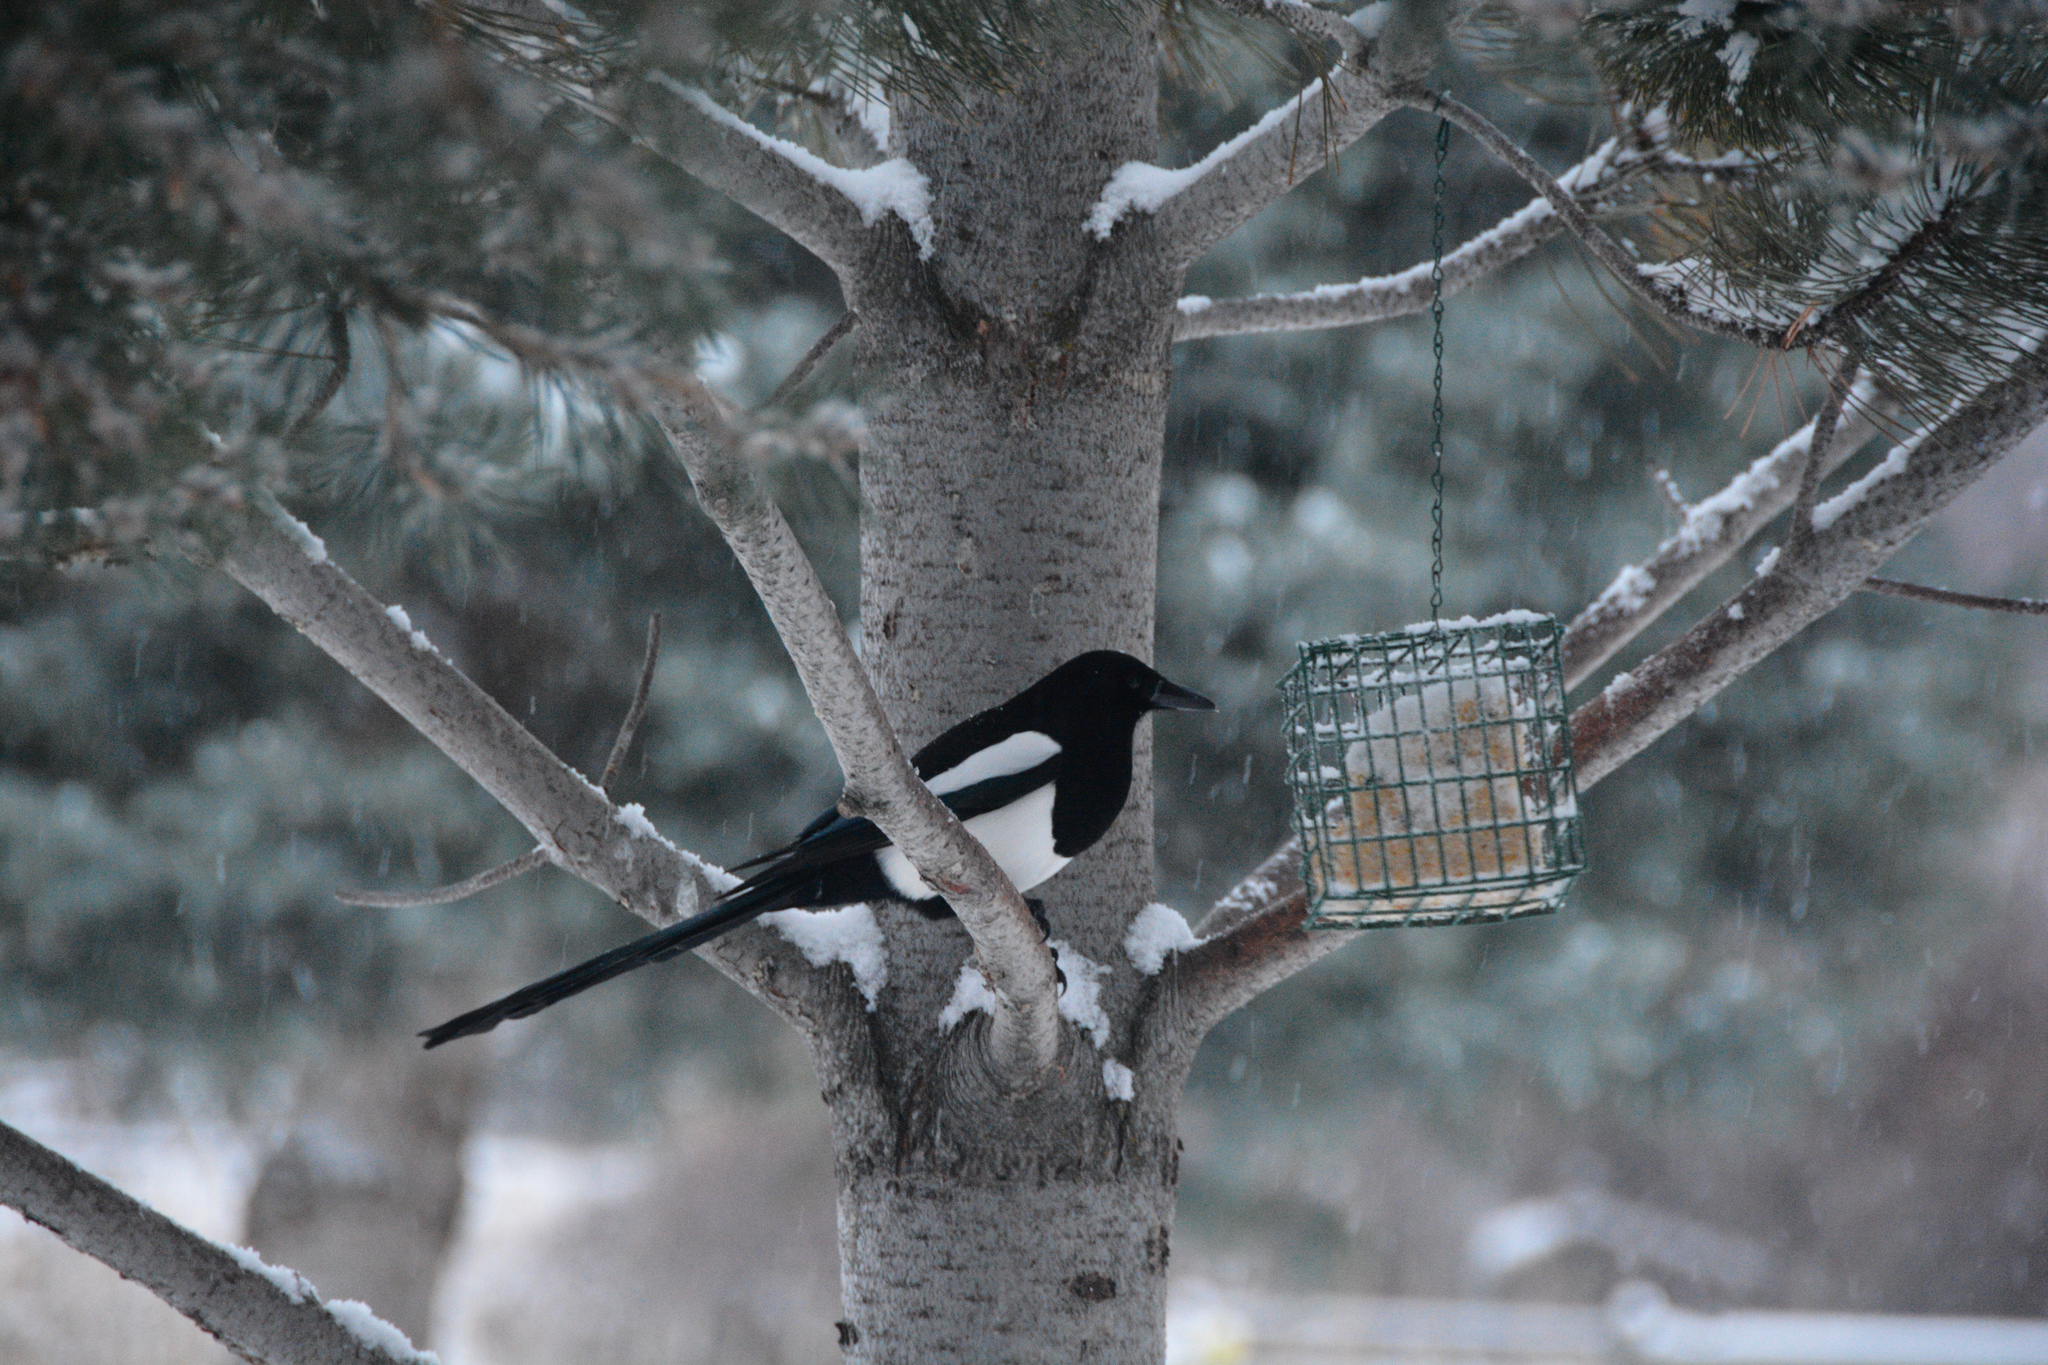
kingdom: Animalia
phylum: Chordata
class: Aves
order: Passeriformes
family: Corvidae
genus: Pica
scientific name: Pica hudsonia
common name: Black-billed magpie
